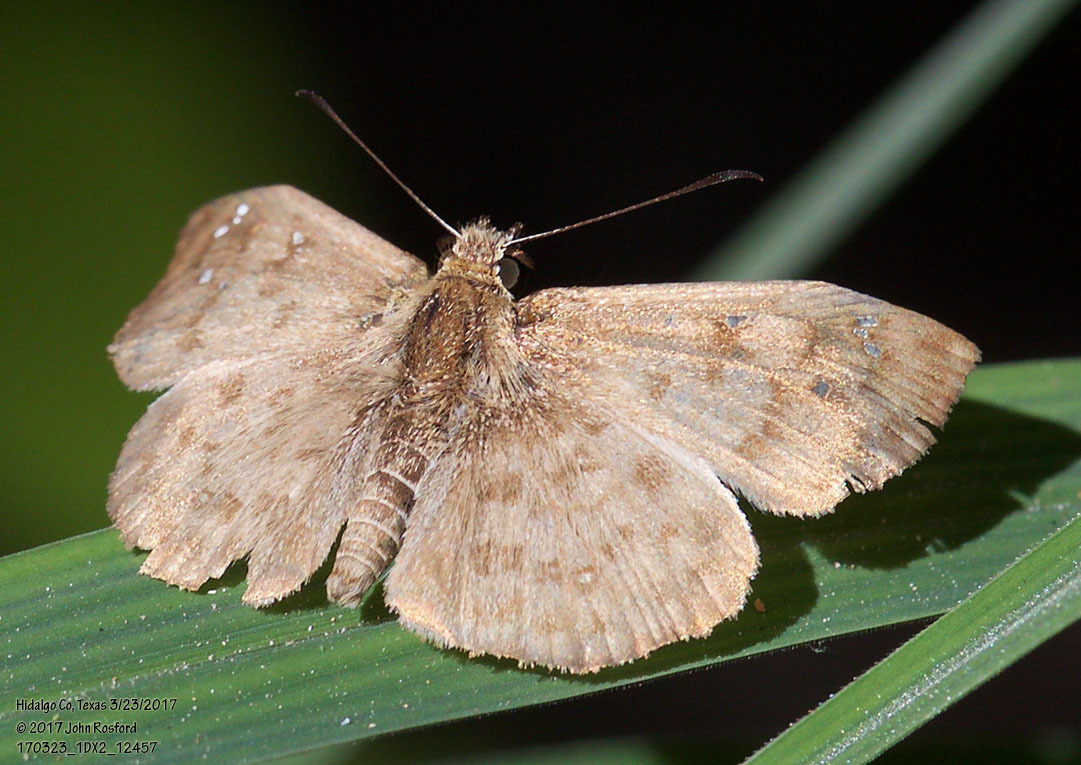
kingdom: Animalia
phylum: Arthropoda
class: Insecta
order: Lepidoptera
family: Hesperiidae
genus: Canesia
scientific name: Canesia canescens
